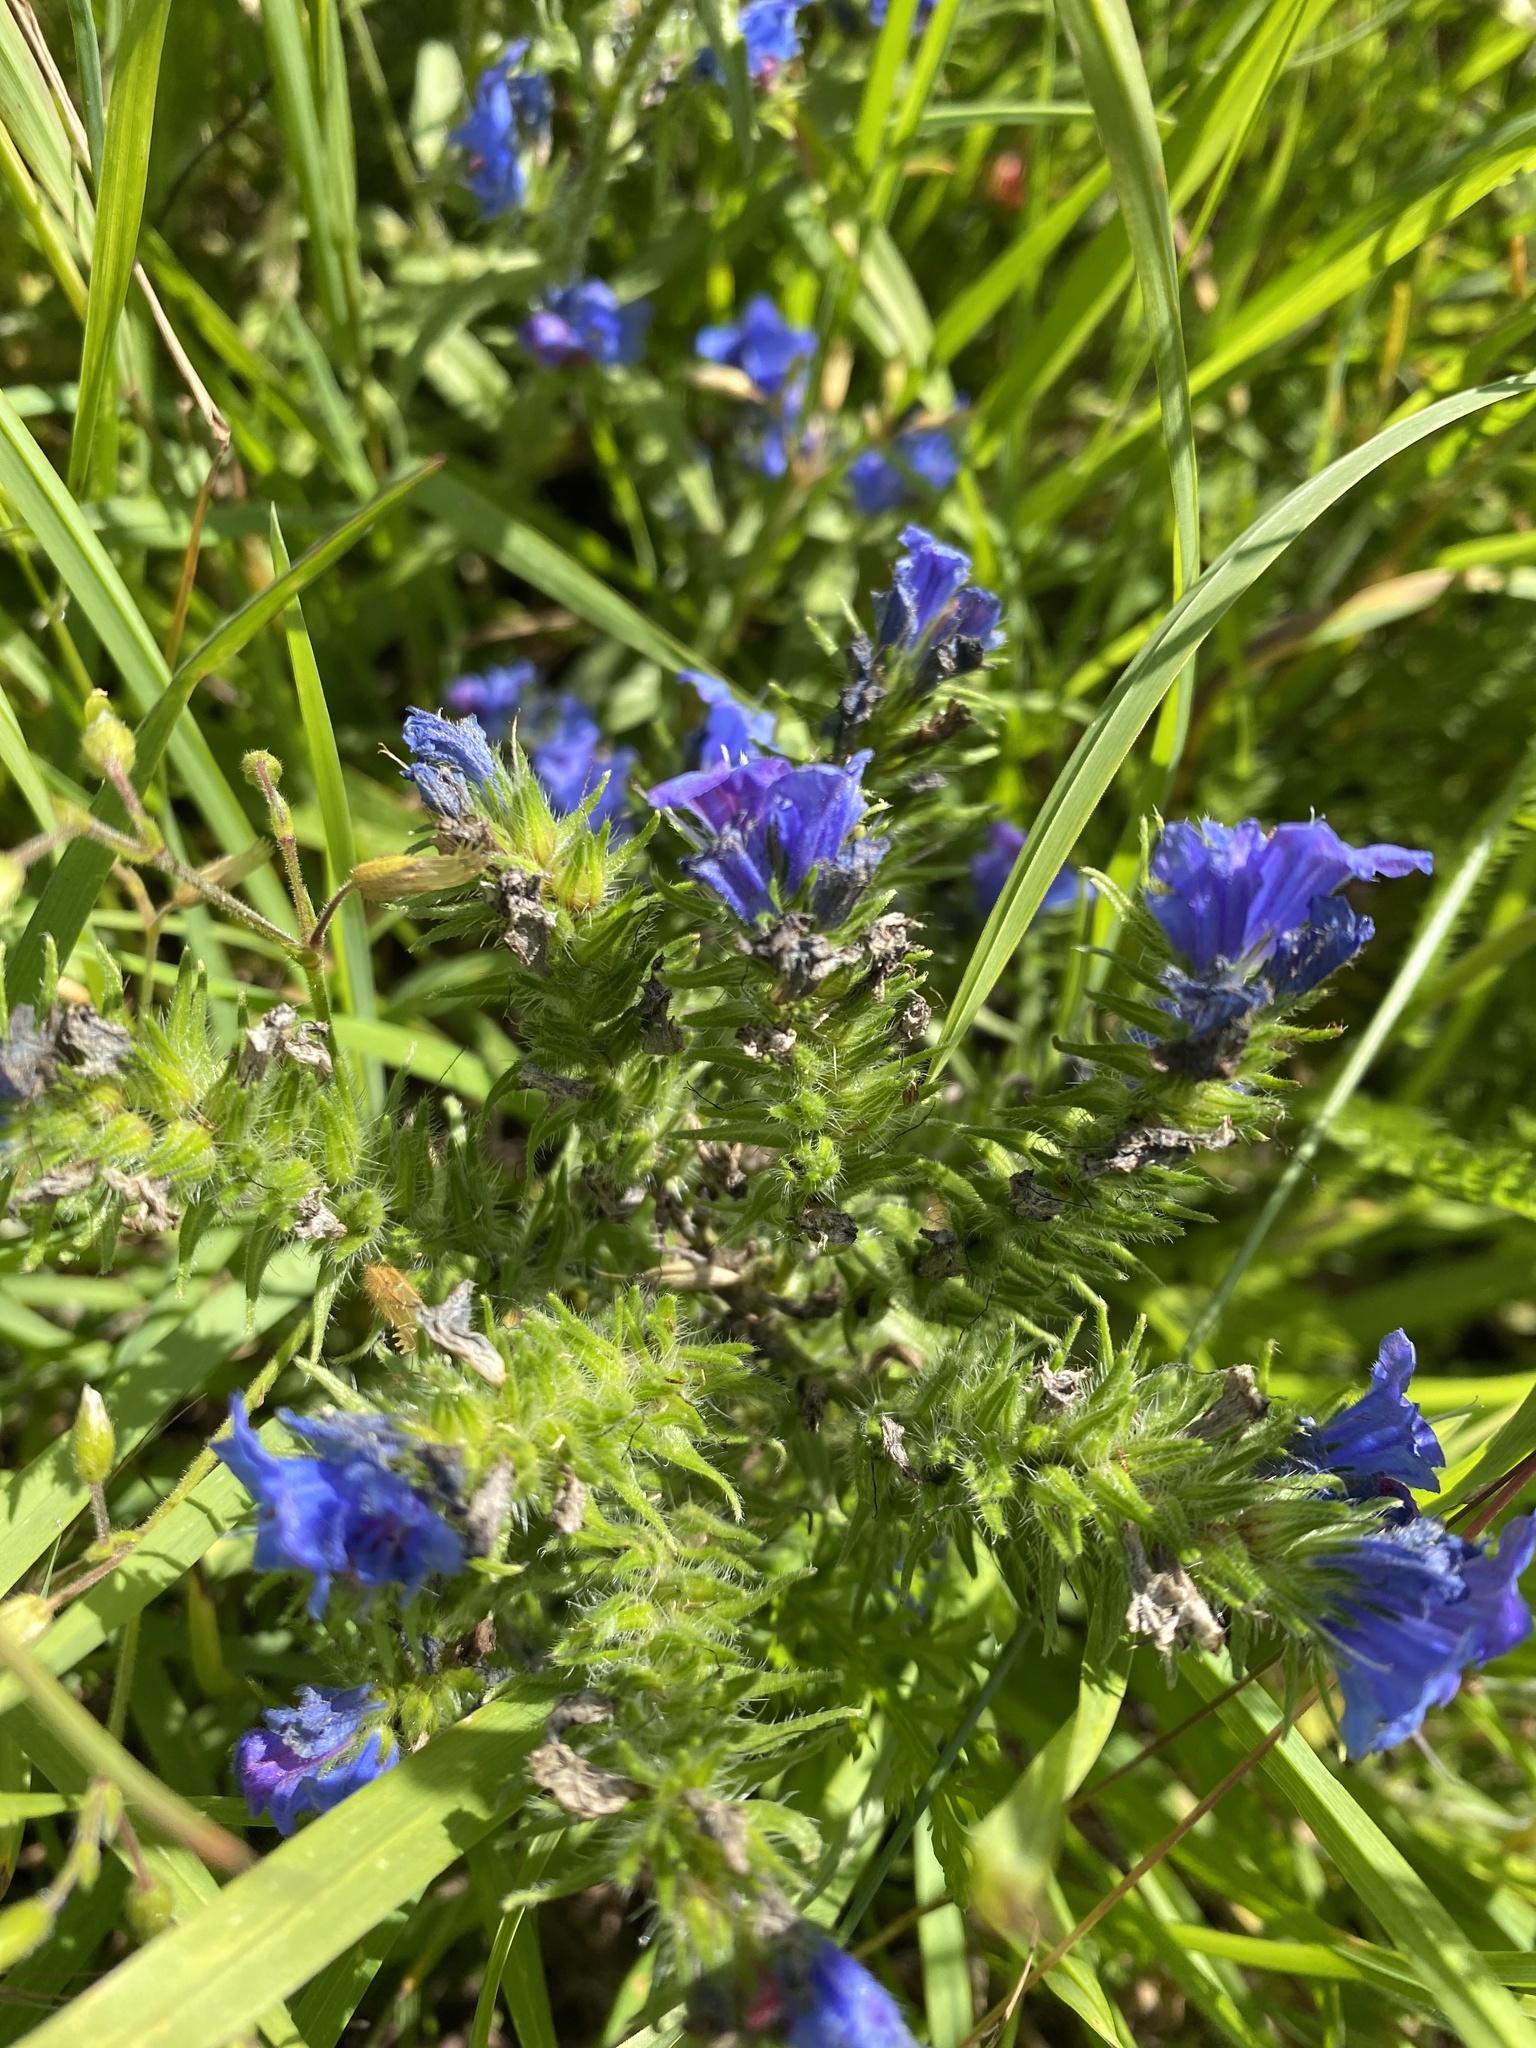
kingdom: Plantae
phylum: Tracheophyta
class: Magnoliopsida
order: Boraginales
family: Boraginaceae
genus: Echium
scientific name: Echium vulgare
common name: Common viper's bugloss
